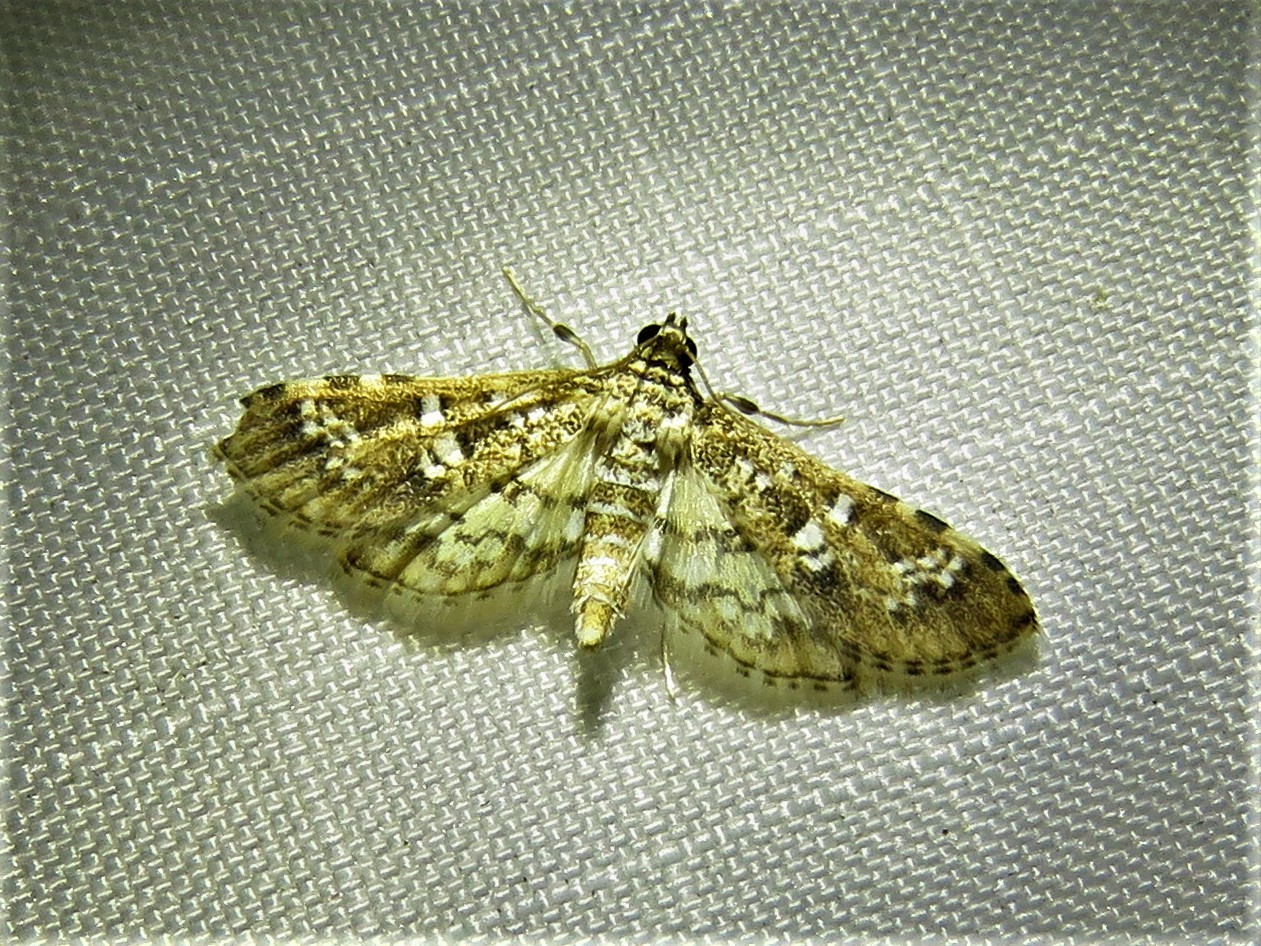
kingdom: Animalia
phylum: Arthropoda
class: Insecta
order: Lepidoptera
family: Crambidae
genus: Samea
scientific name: Samea multiplicalis
